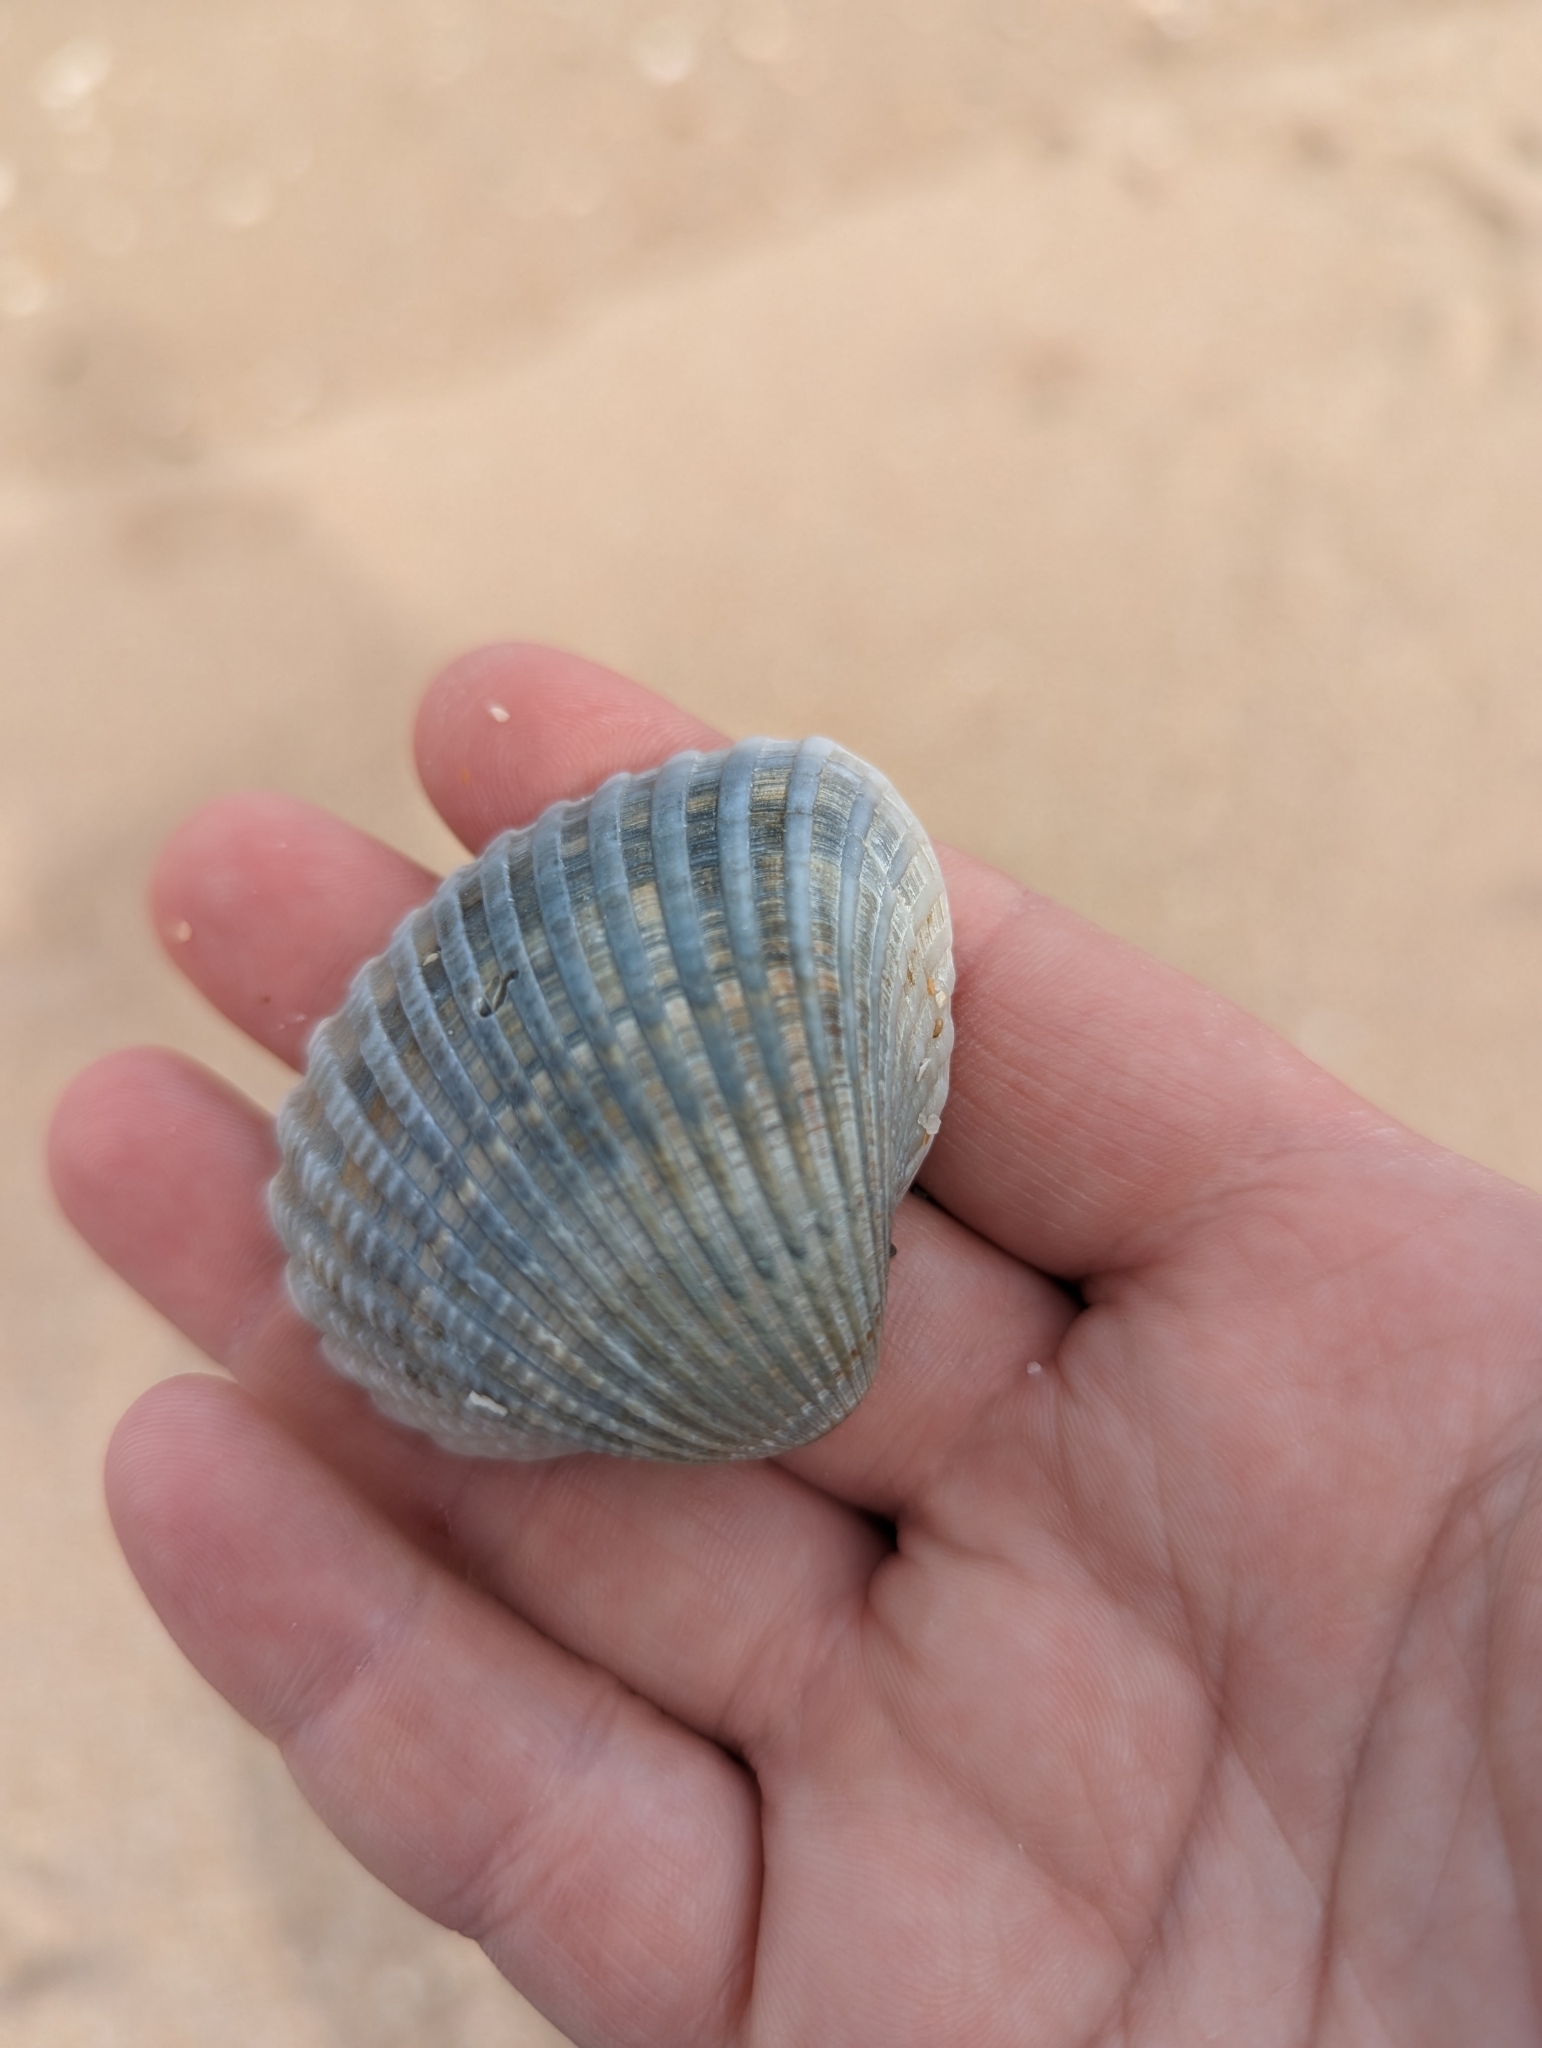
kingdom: Animalia
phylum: Mollusca
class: Bivalvia
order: Arcida
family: Arcidae
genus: Anadara
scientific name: Anadara brasiliana
